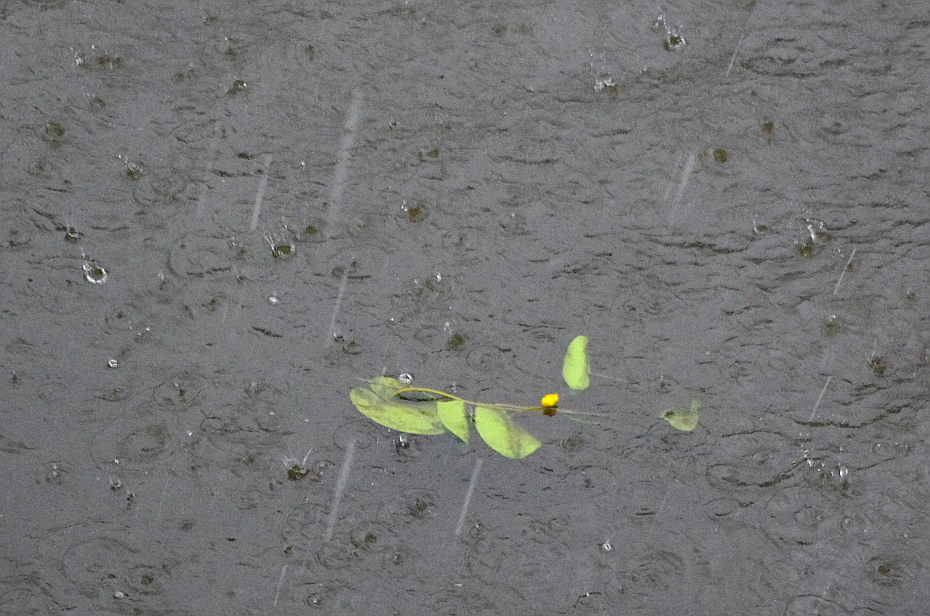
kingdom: Plantae
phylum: Tracheophyta
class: Magnoliopsida
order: Nymphaeales
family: Nymphaeaceae
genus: Nuphar
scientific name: Nuphar lutea
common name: Yellow water-lily
